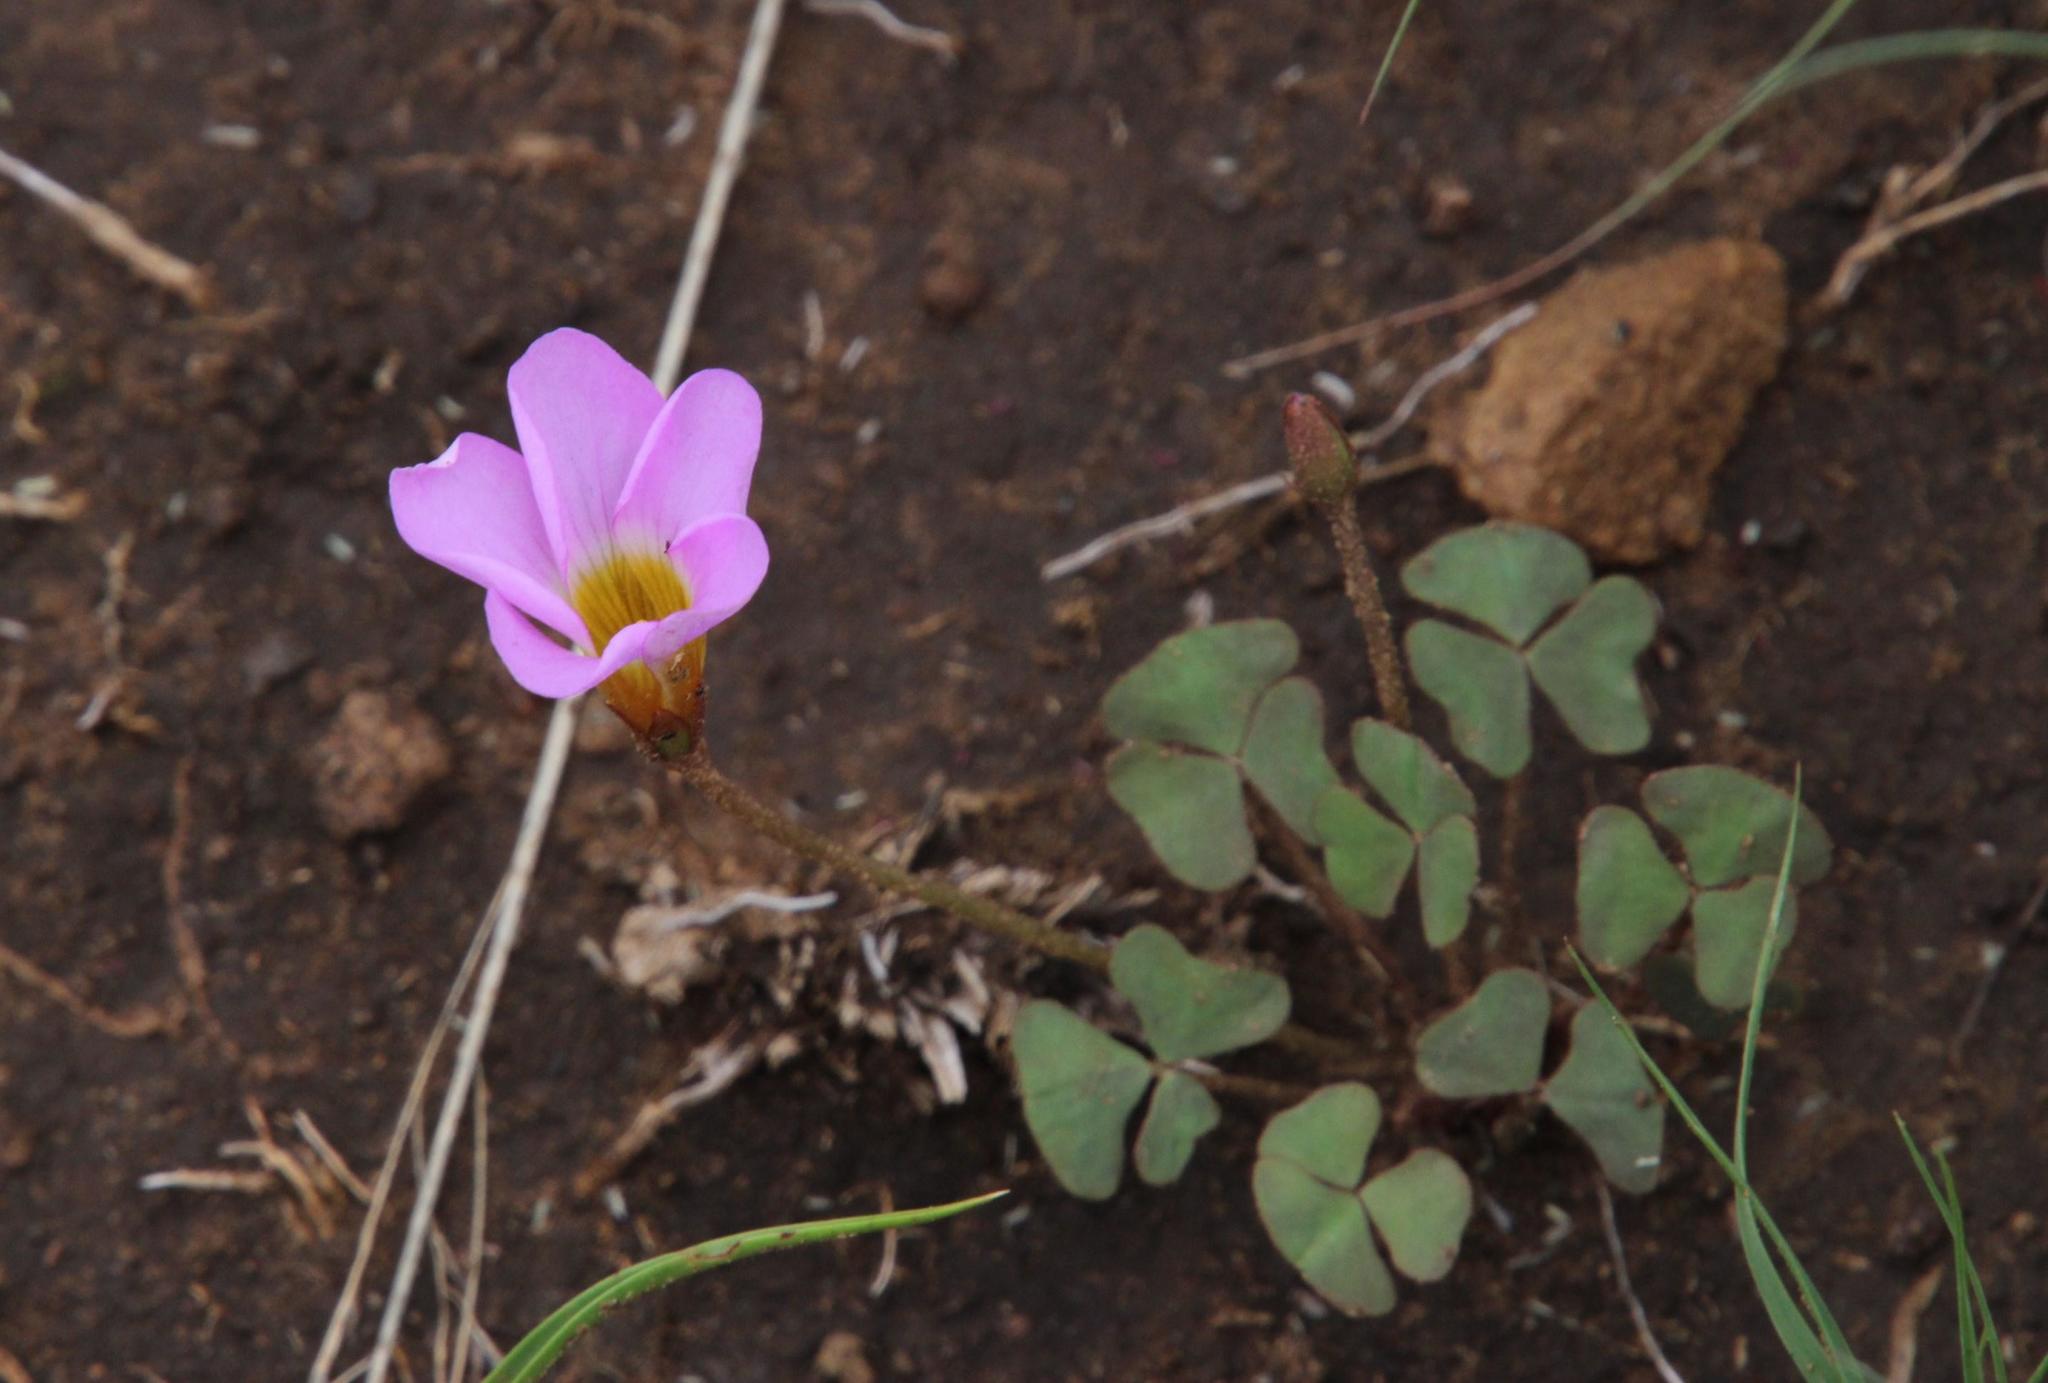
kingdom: Plantae
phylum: Tracheophyta
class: Magnoliopsida
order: Oxalidales
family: Oxalidaceae
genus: Oxalis
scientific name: Oxalis obliquifolia
